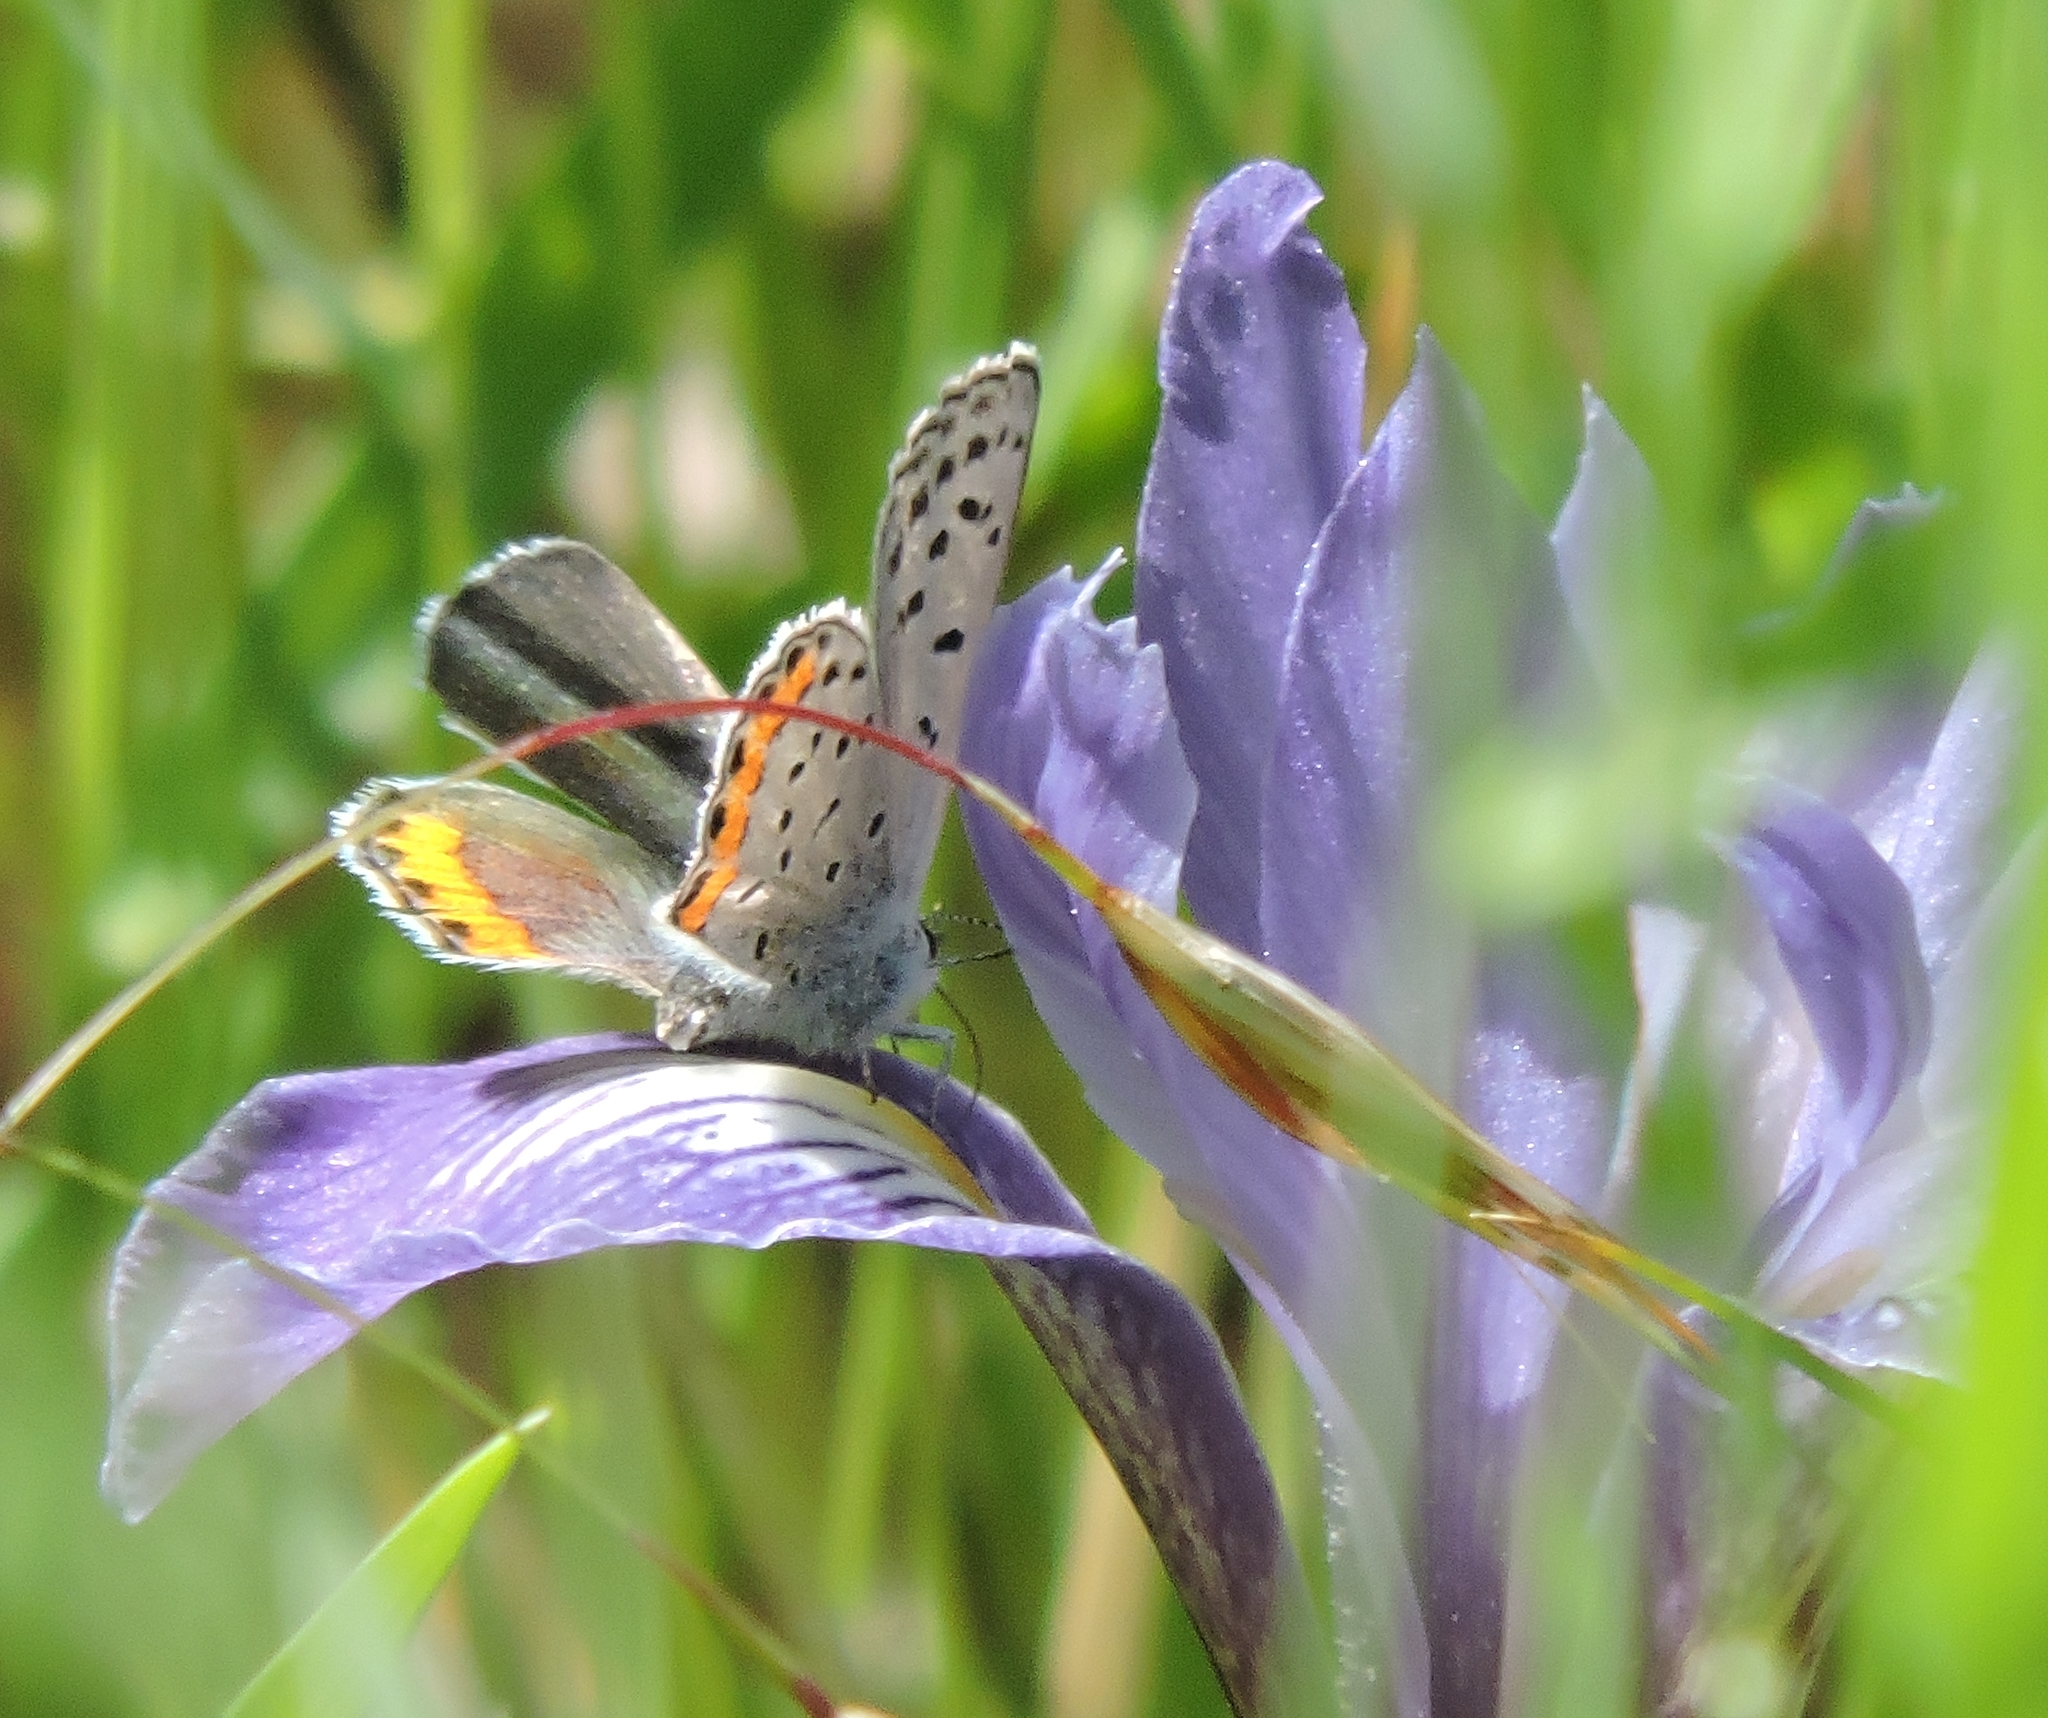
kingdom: Animalia
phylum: Arthropoda
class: Insecta
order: Lepidoptera
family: Lycaenidae
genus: Icaricia
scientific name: Icaricia acmon
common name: Acmon blue
